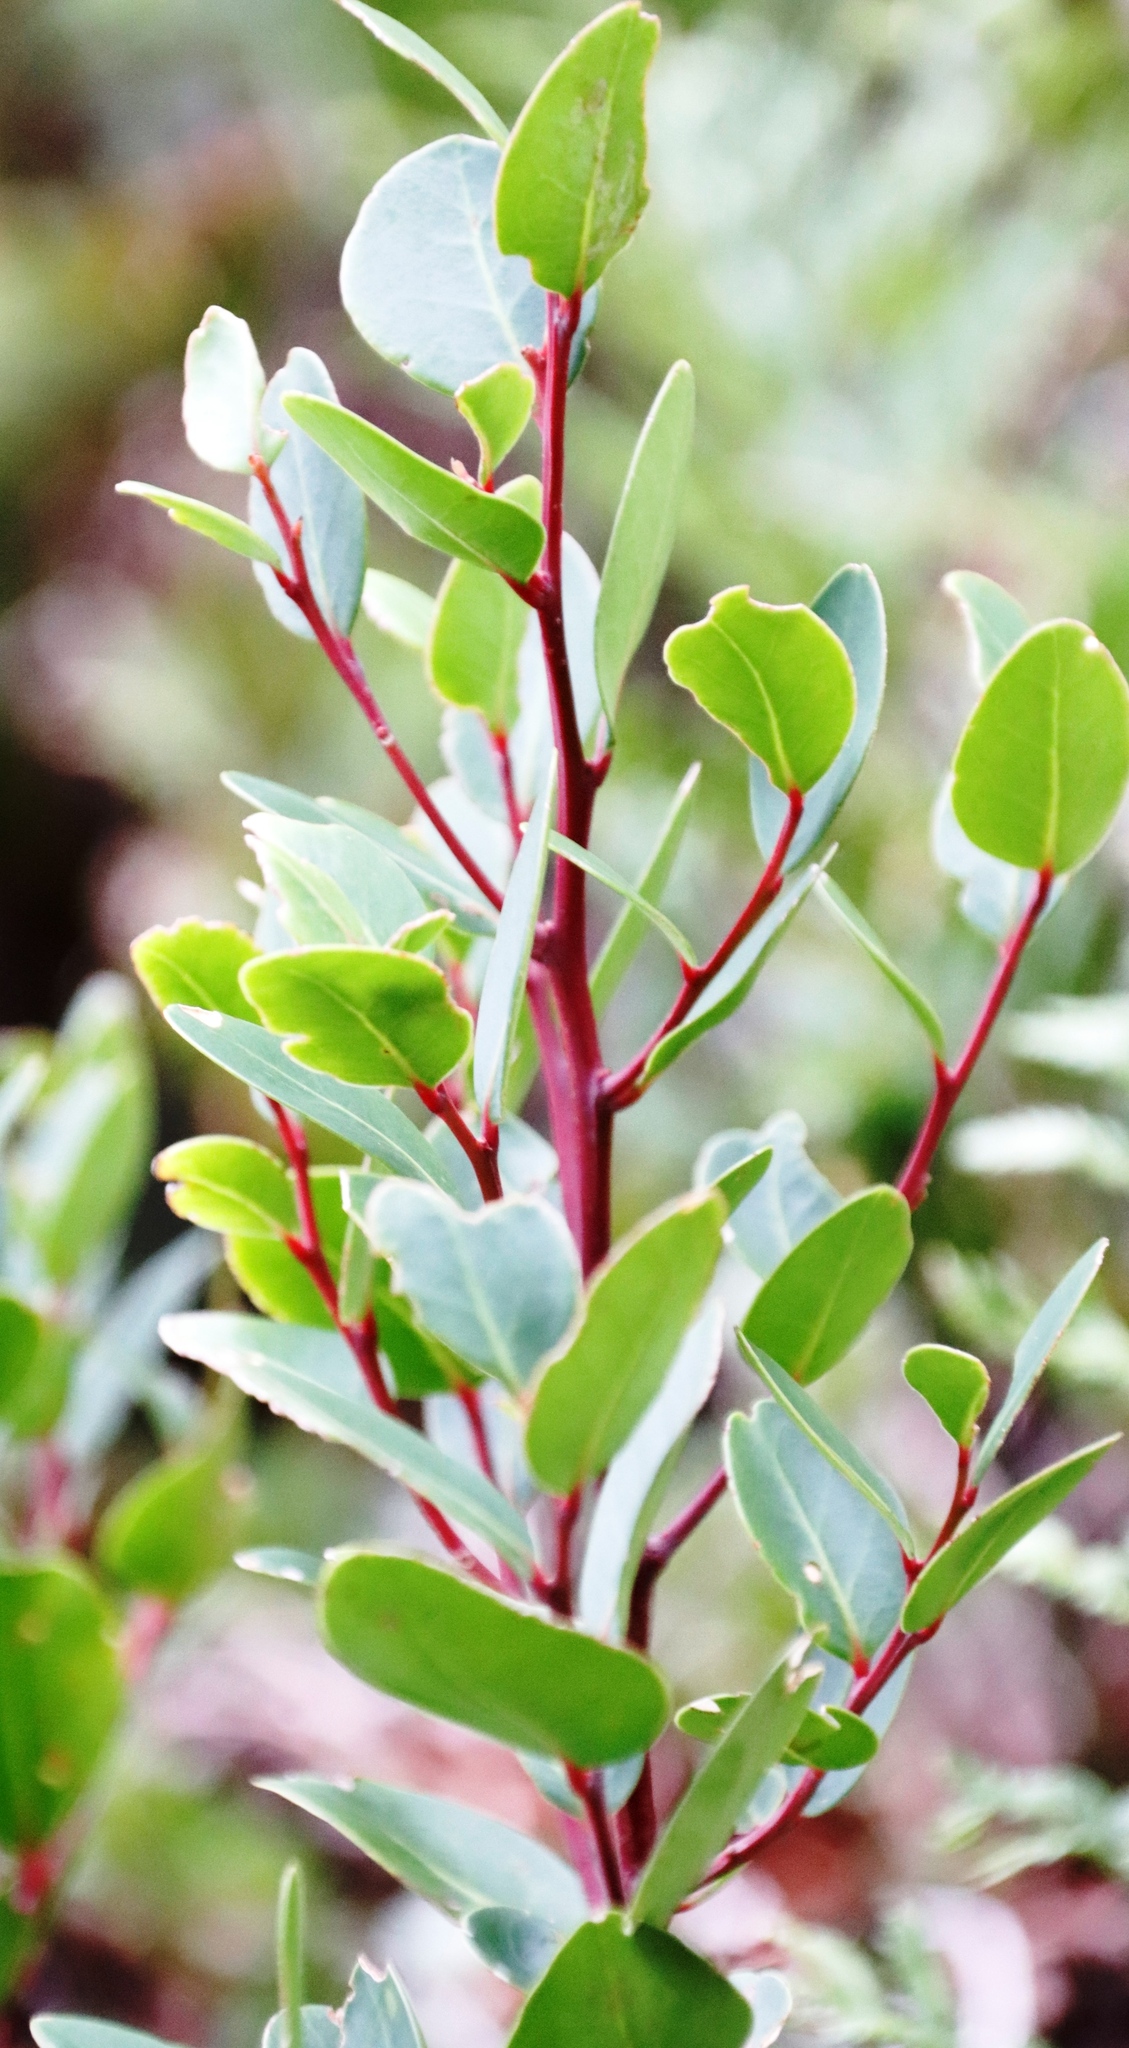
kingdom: Plantae
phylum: Tracheophyta
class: Magnoliopsida
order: Celastrales
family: Celastraceae
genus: Gymnosporia
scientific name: Gymnosporia laurina
